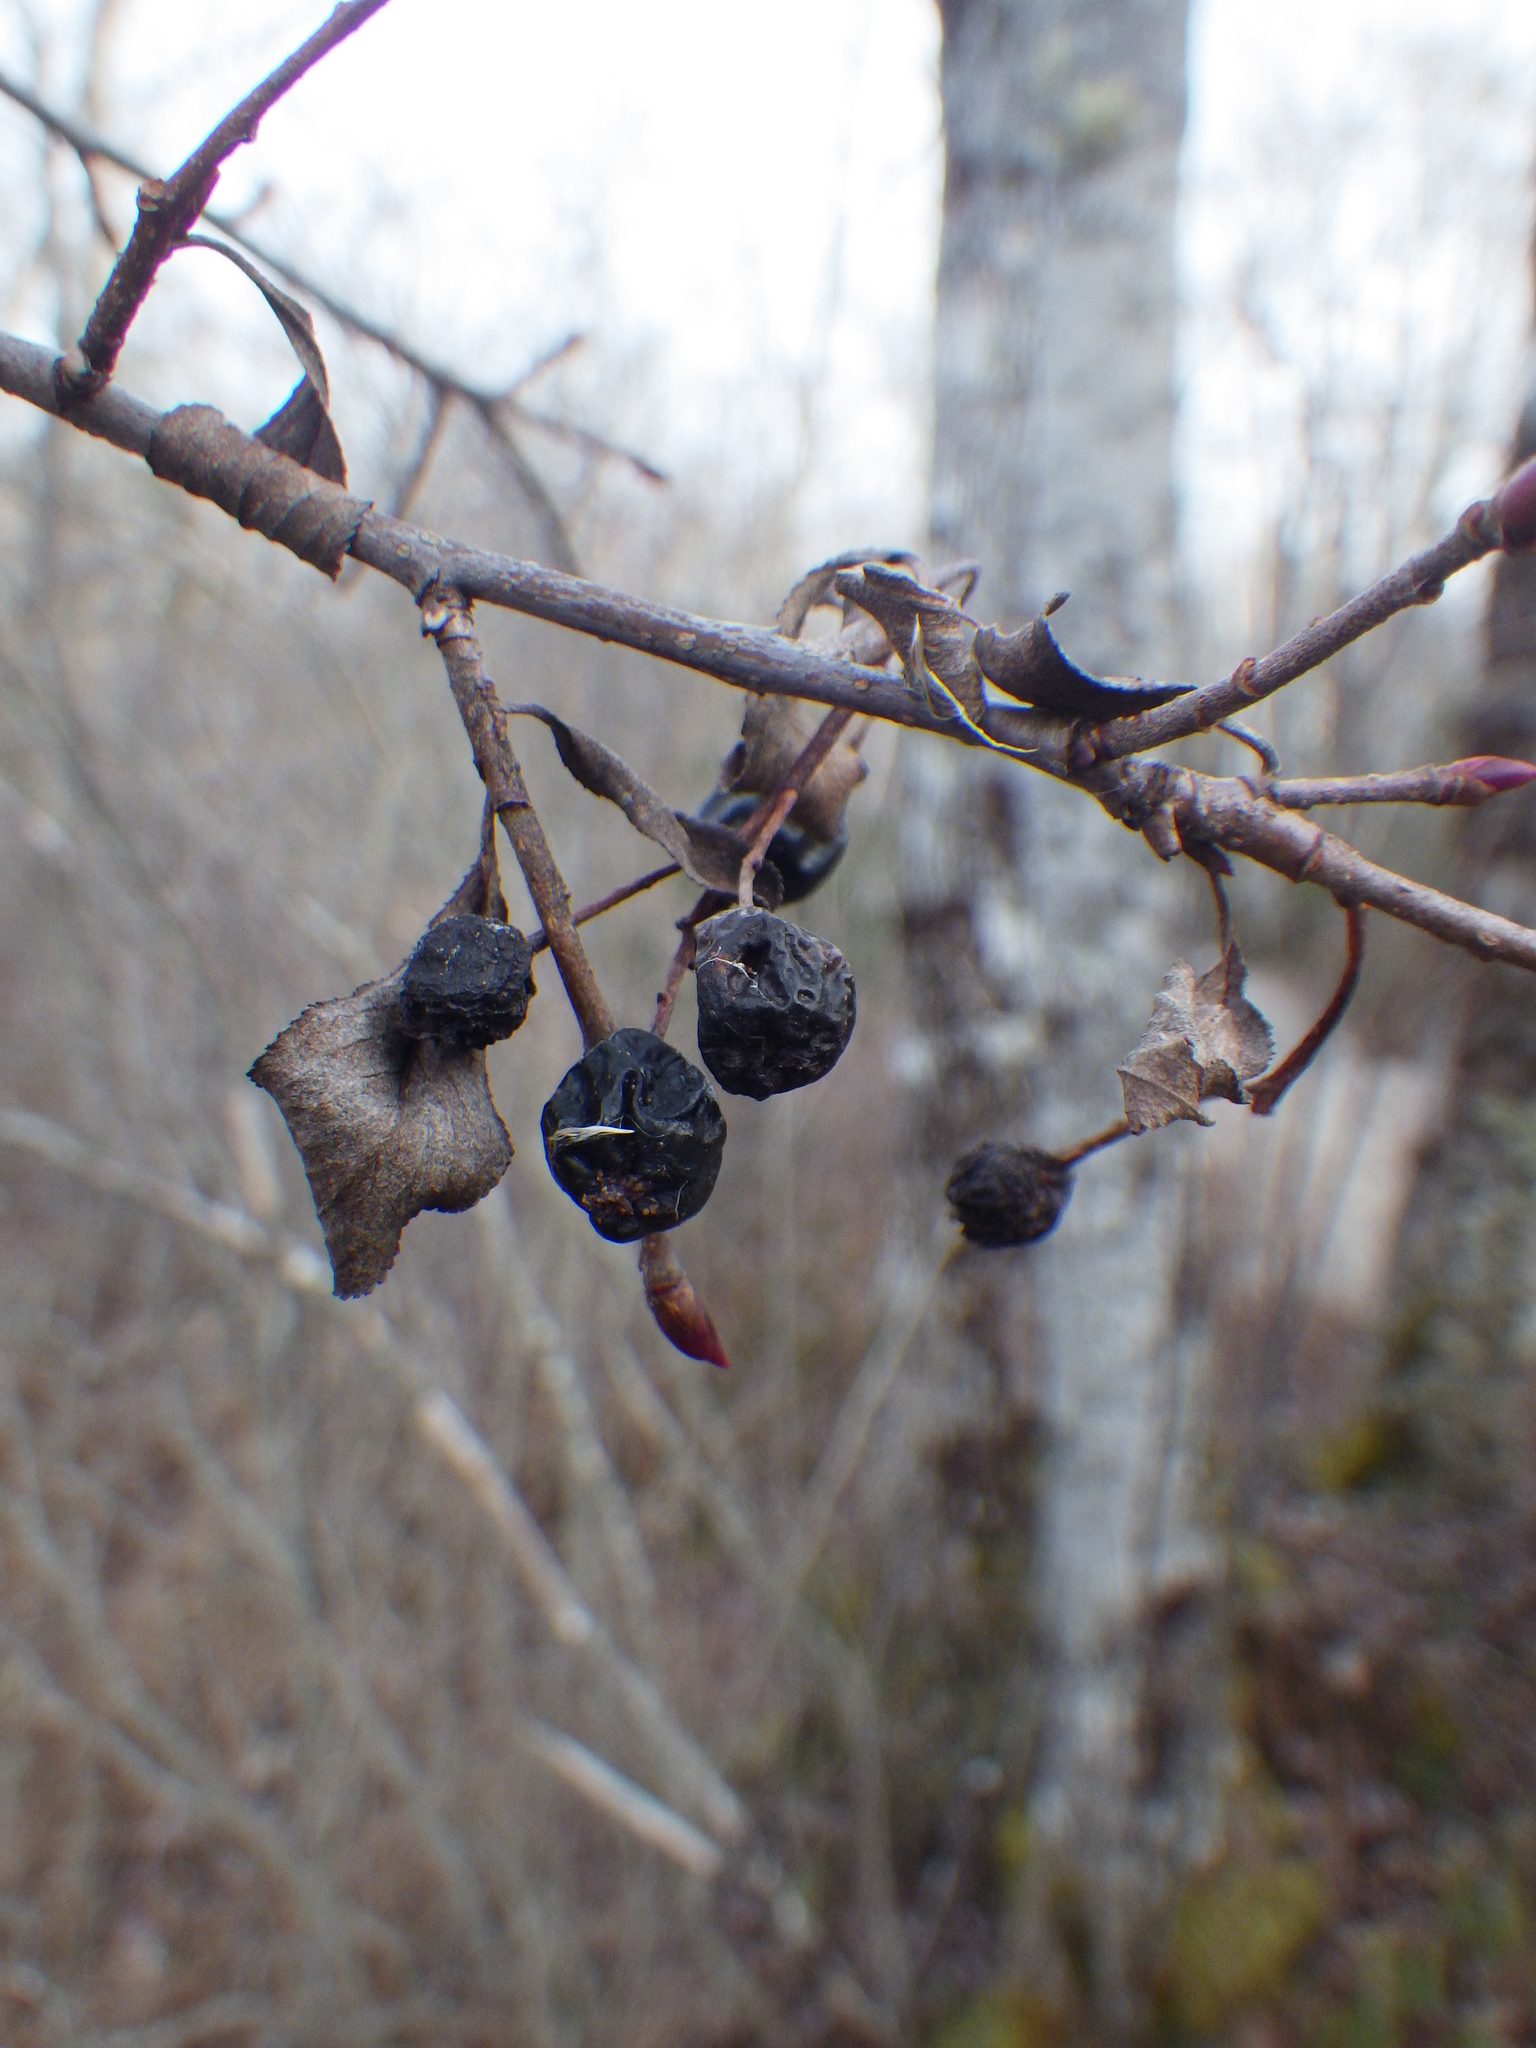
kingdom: Plantae
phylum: Tracheophyta
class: Magnoliopsida
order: Rosales
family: Rosaceae
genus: Prunus
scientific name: Prunus virginiana
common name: Chokecherry
